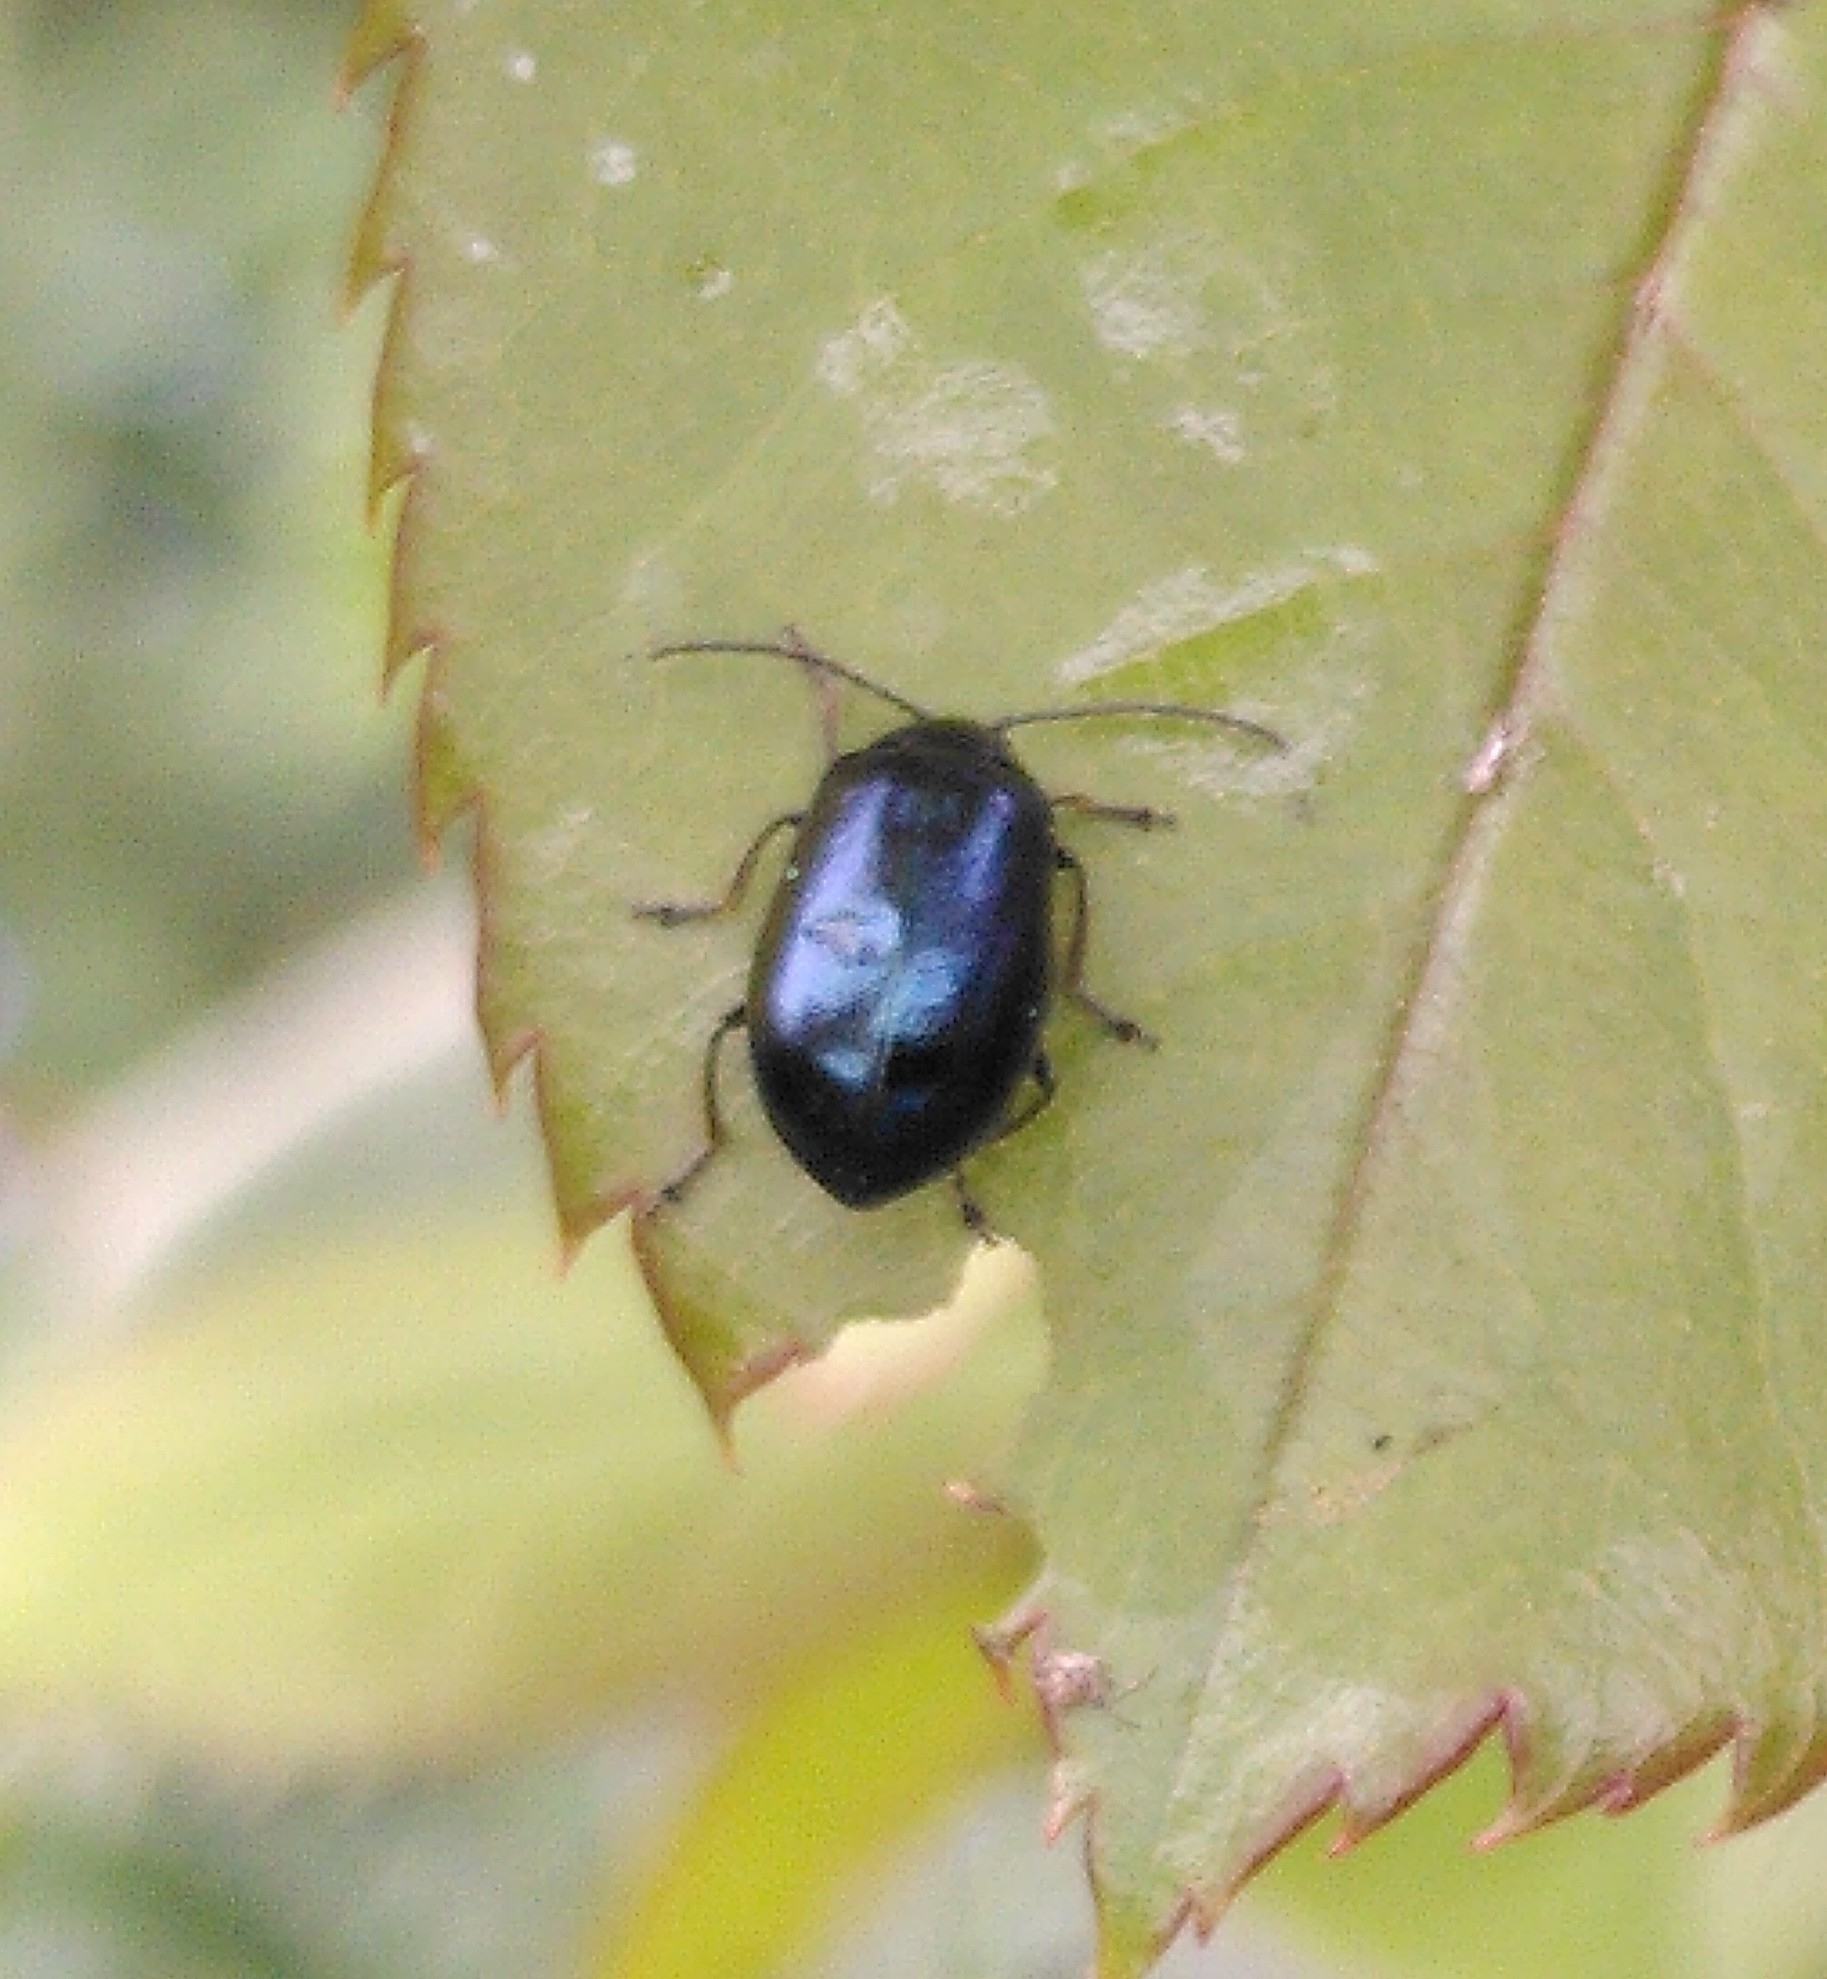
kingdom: Animalia
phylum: Arthropoda
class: Insecta
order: Coleoptera
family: Chrysomelidae
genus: Agelastica
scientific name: Agelastica alni
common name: Alder leaf beetle
